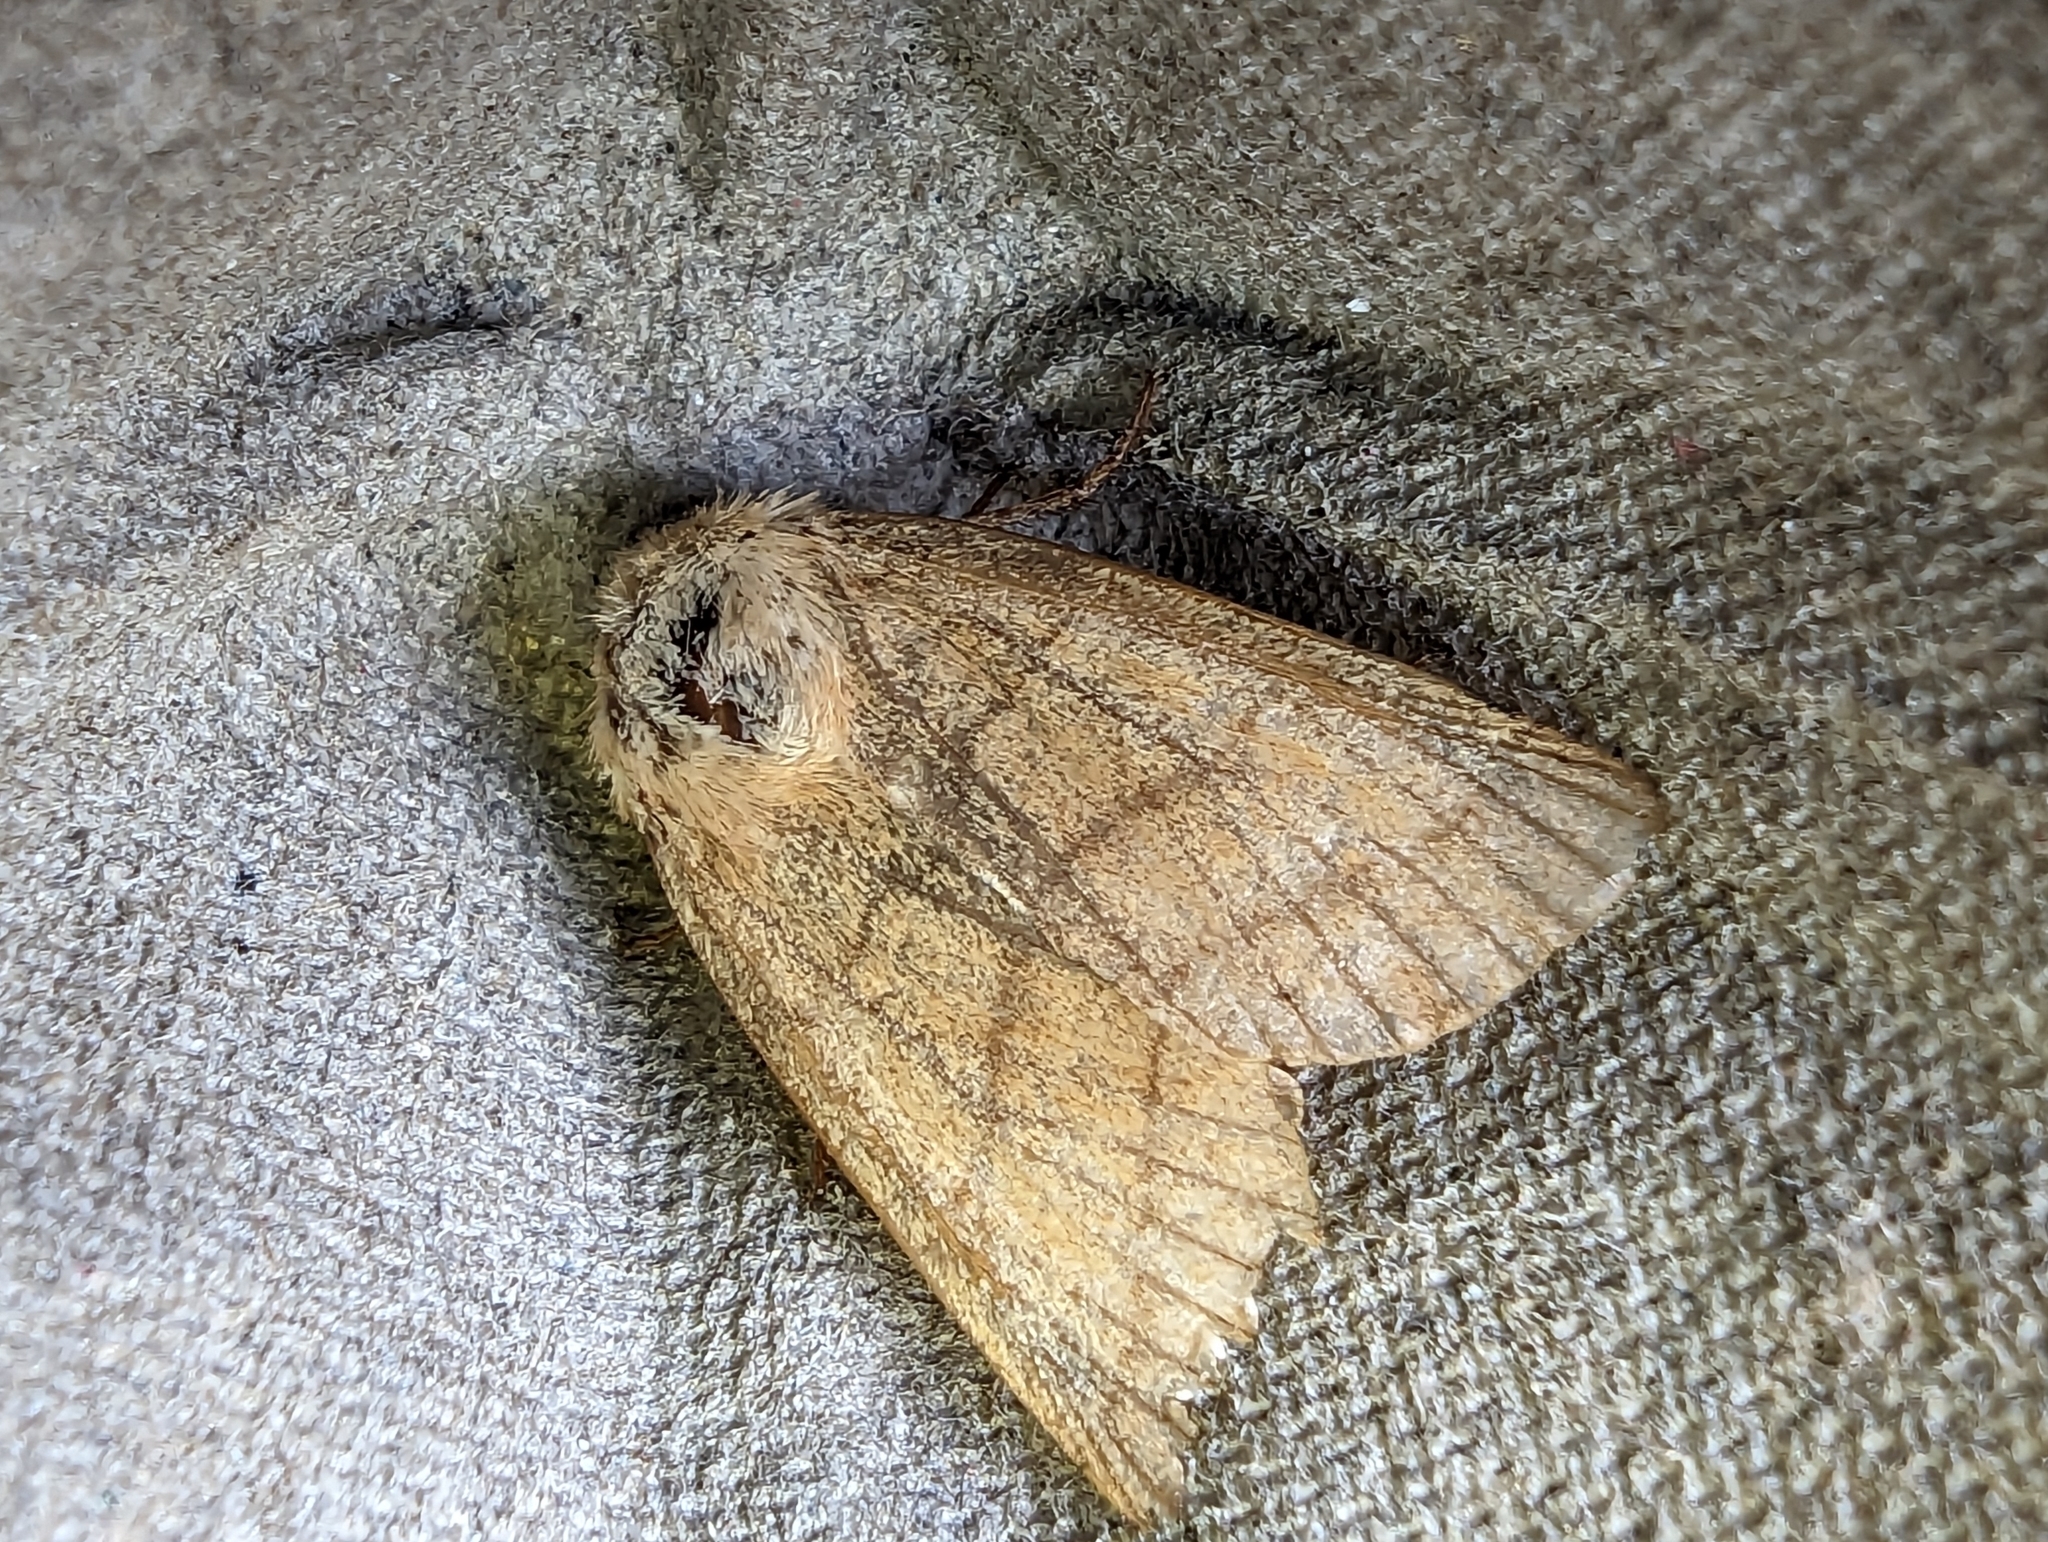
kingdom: Animalia
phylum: Arthropoda
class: Insecta
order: Lepidoptera
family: Noctuidae
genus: Charanyca
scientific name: Charanyca trigrammica
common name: Treble lines
